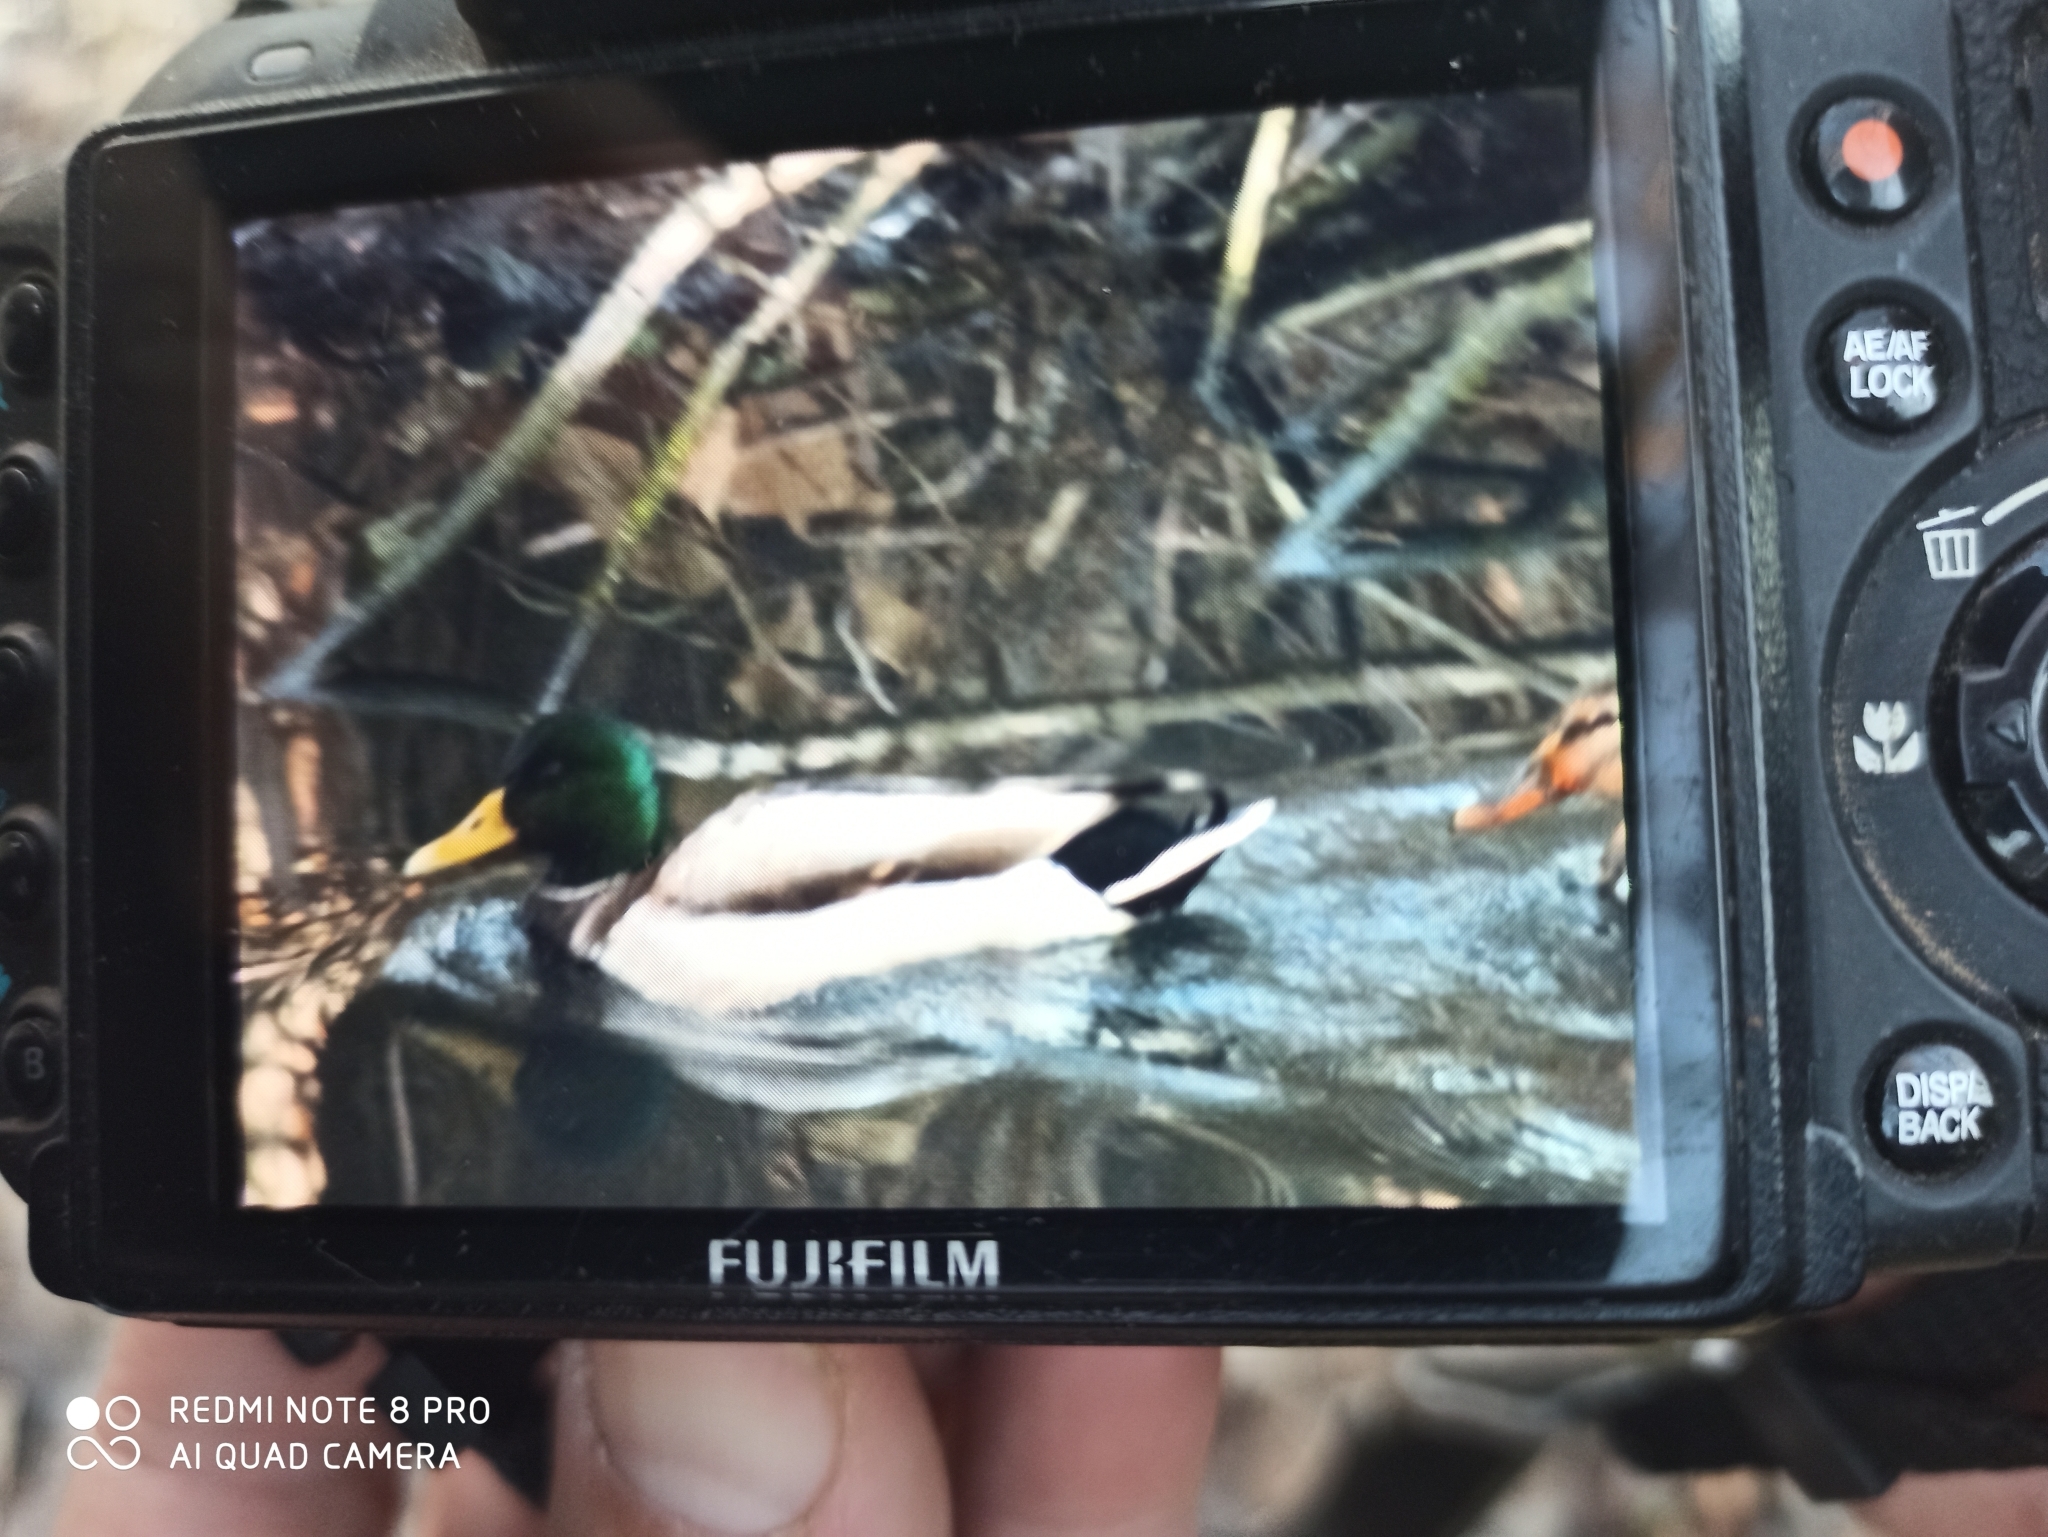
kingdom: Animalia
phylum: Chordata
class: Aves
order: Anseriformes
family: Anatidae
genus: Anas
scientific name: Anas platyrhynchos
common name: Mallard
